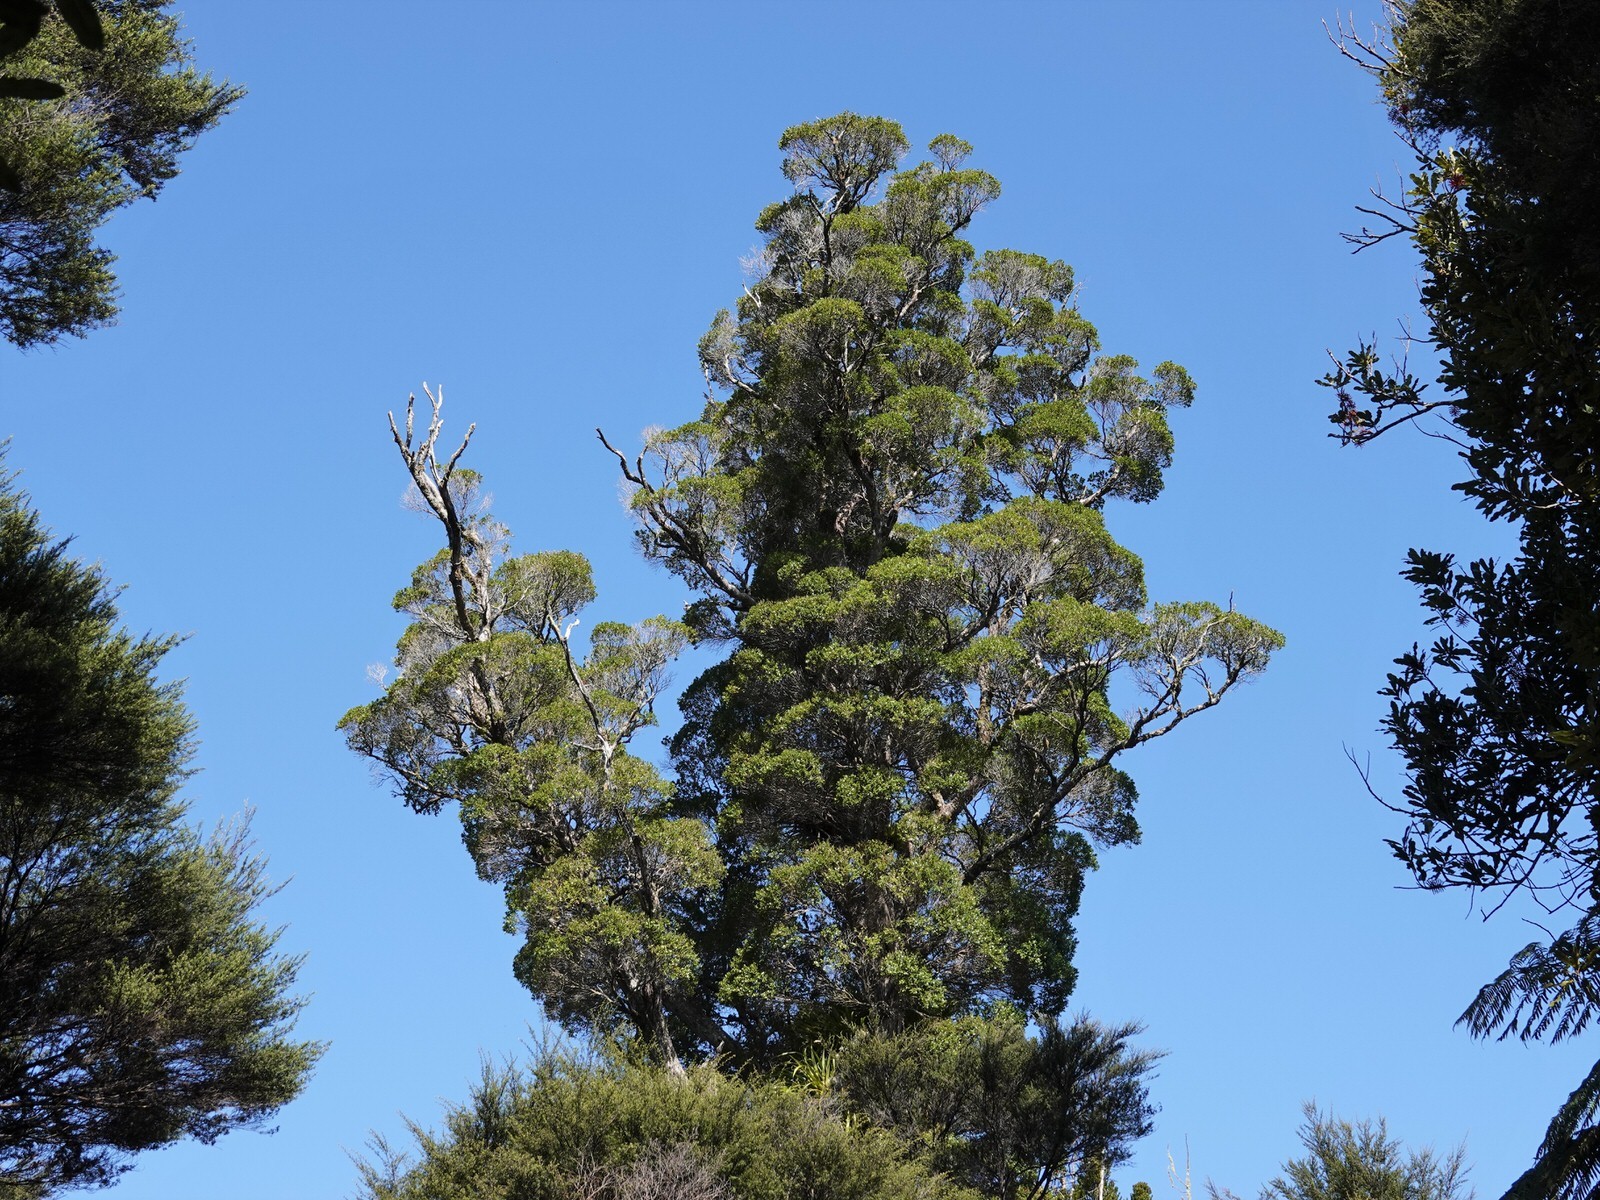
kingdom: Plantae
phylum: Tracheophyta
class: Magnoliopsida
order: Myrtales
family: Myrtaceae
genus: Metrosideros
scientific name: Metrosideros robusta
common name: Northern rata
